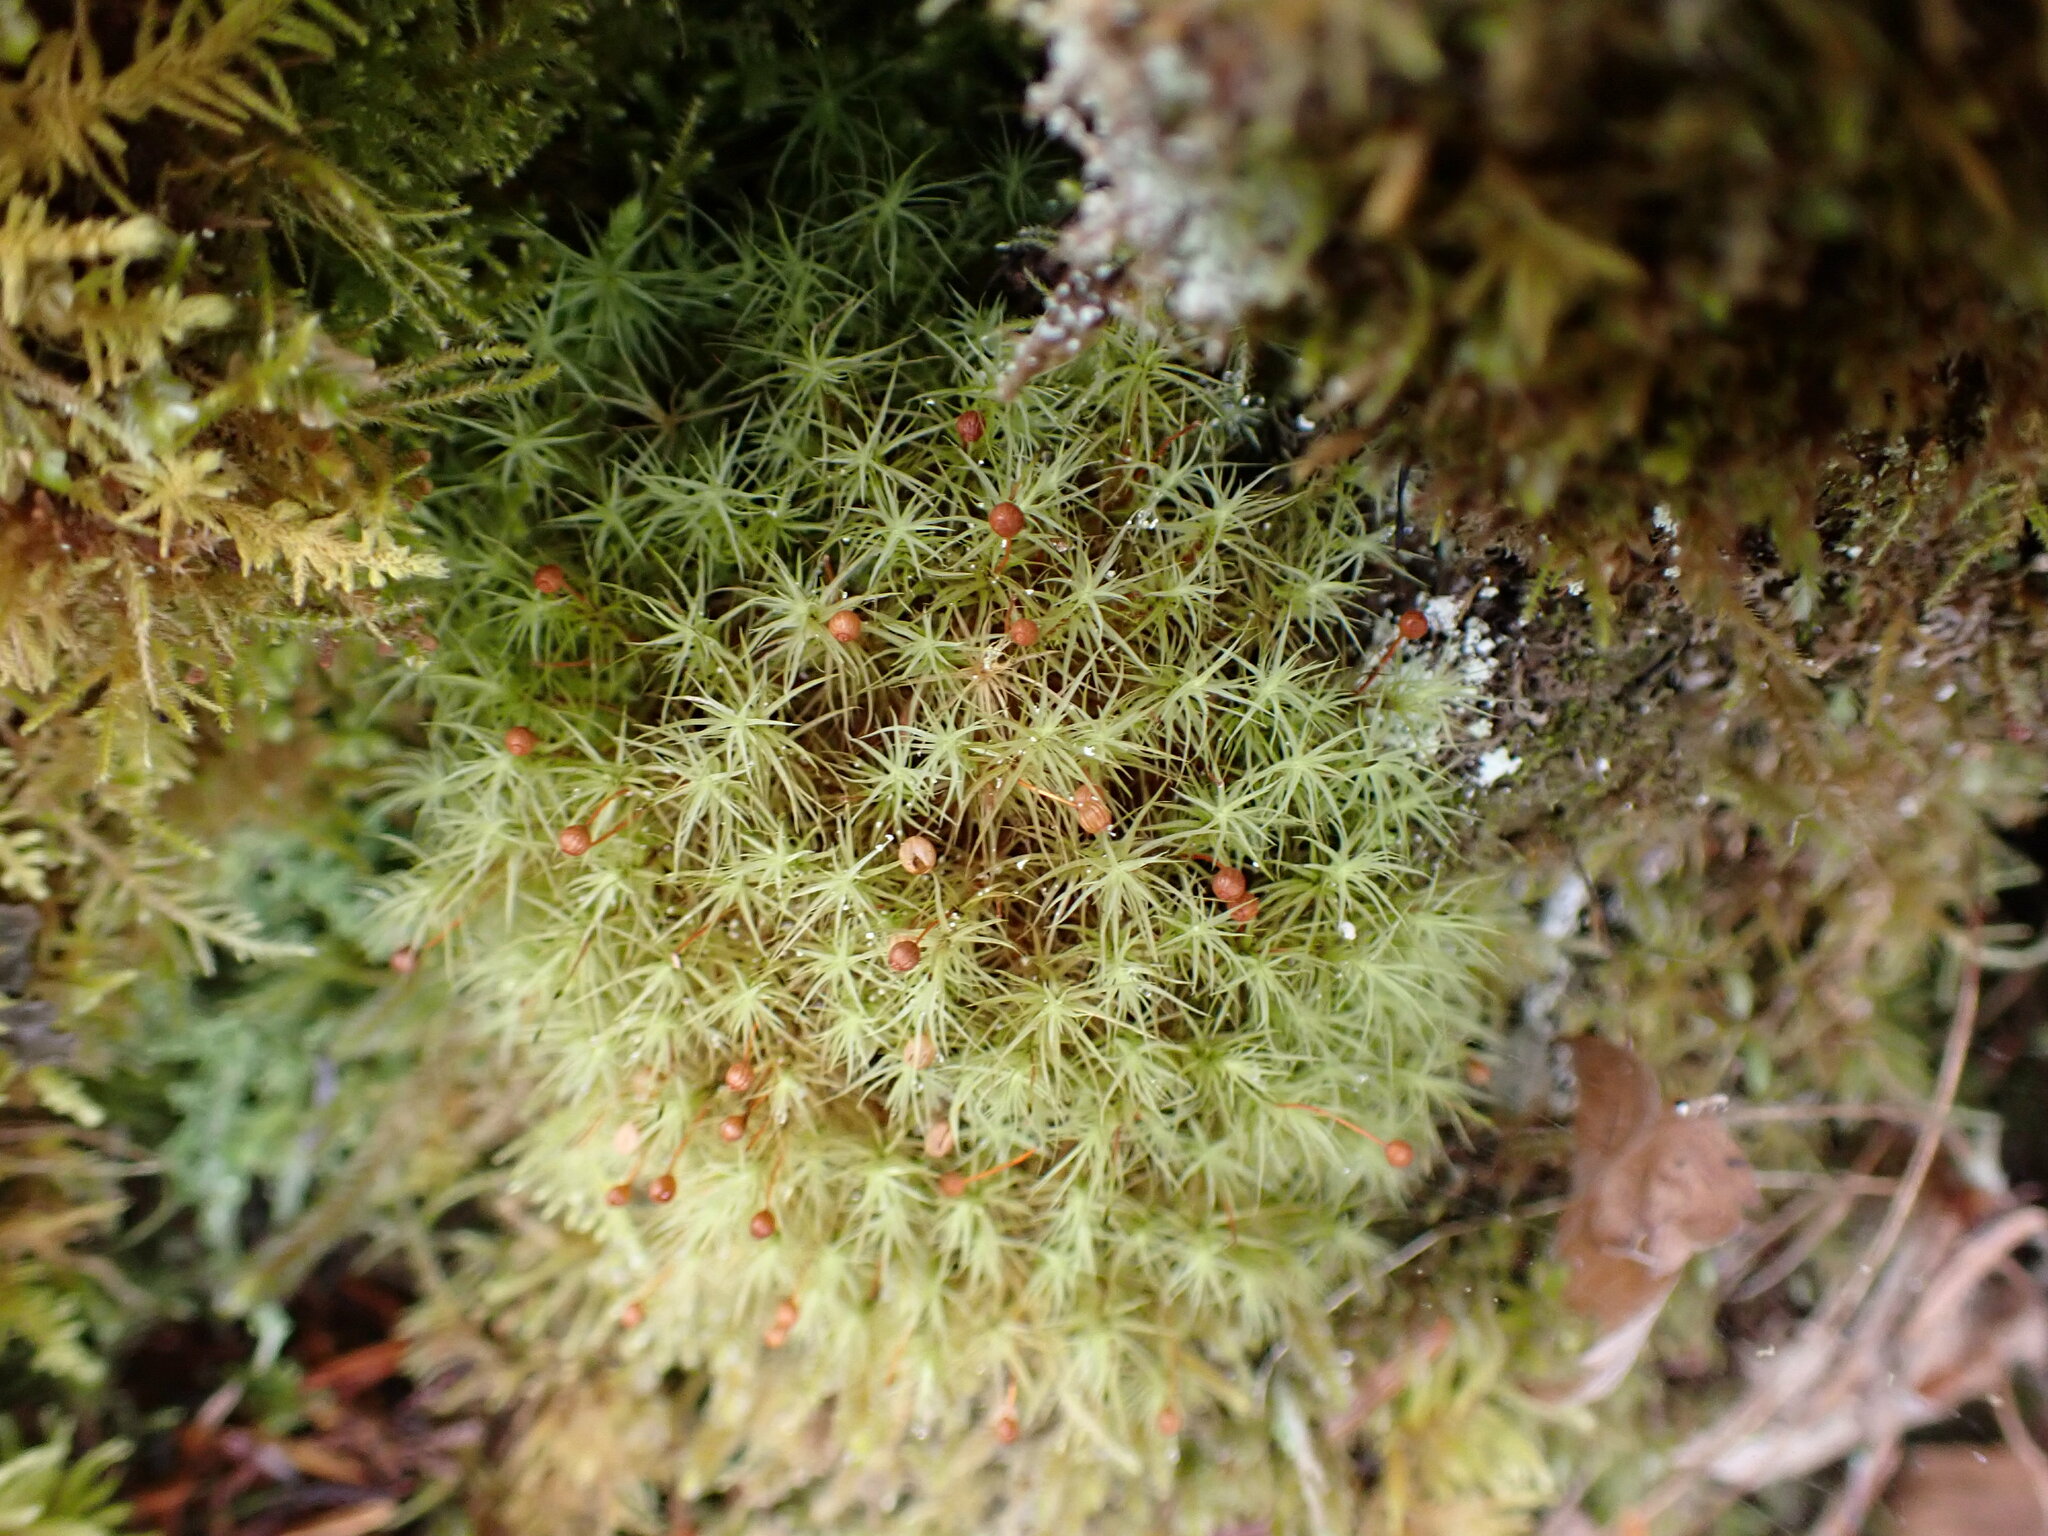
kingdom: Plantae
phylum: Bryophyta
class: Bryopsida
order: Bartramiales
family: Bartramiaceae
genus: Bartramia
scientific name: Bartramia ithyphylla
